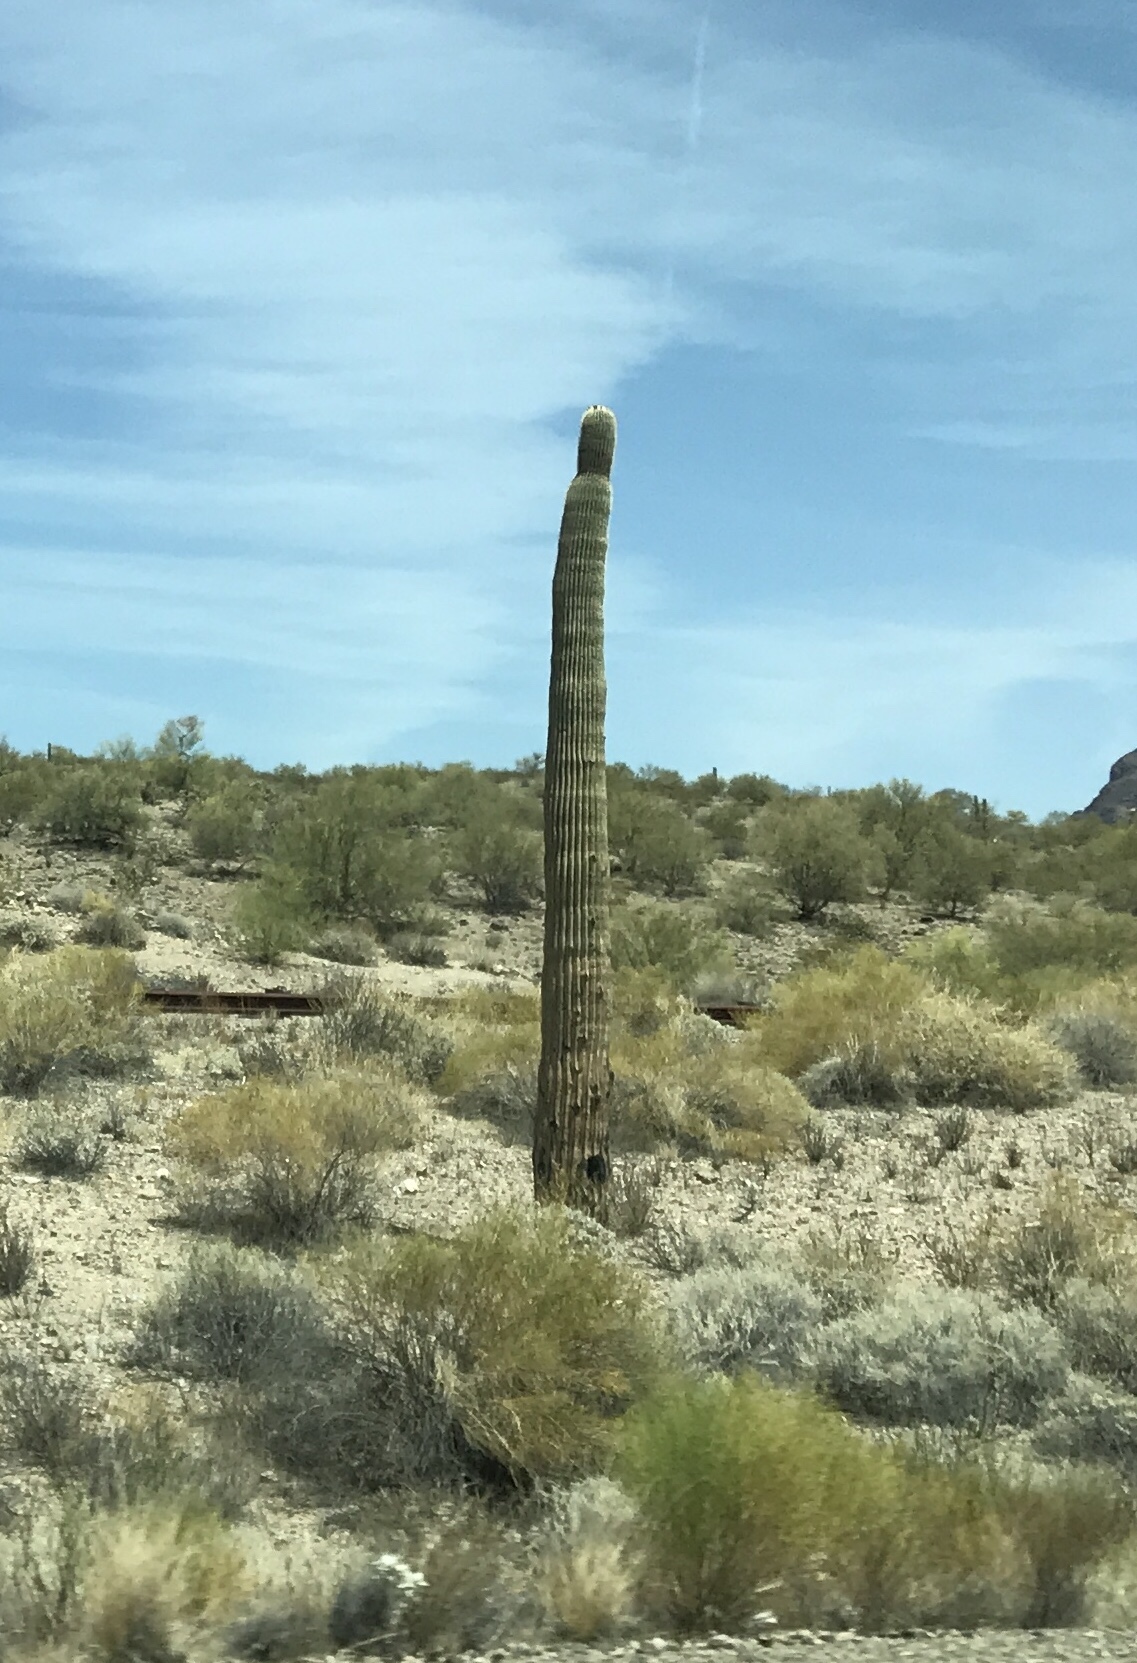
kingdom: Plantae
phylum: Tracheophyta
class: Magnoliopsida
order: Caryophyllales
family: Cactaceae
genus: Carnegiea
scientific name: Carnegiea gigantea
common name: Saguaro
